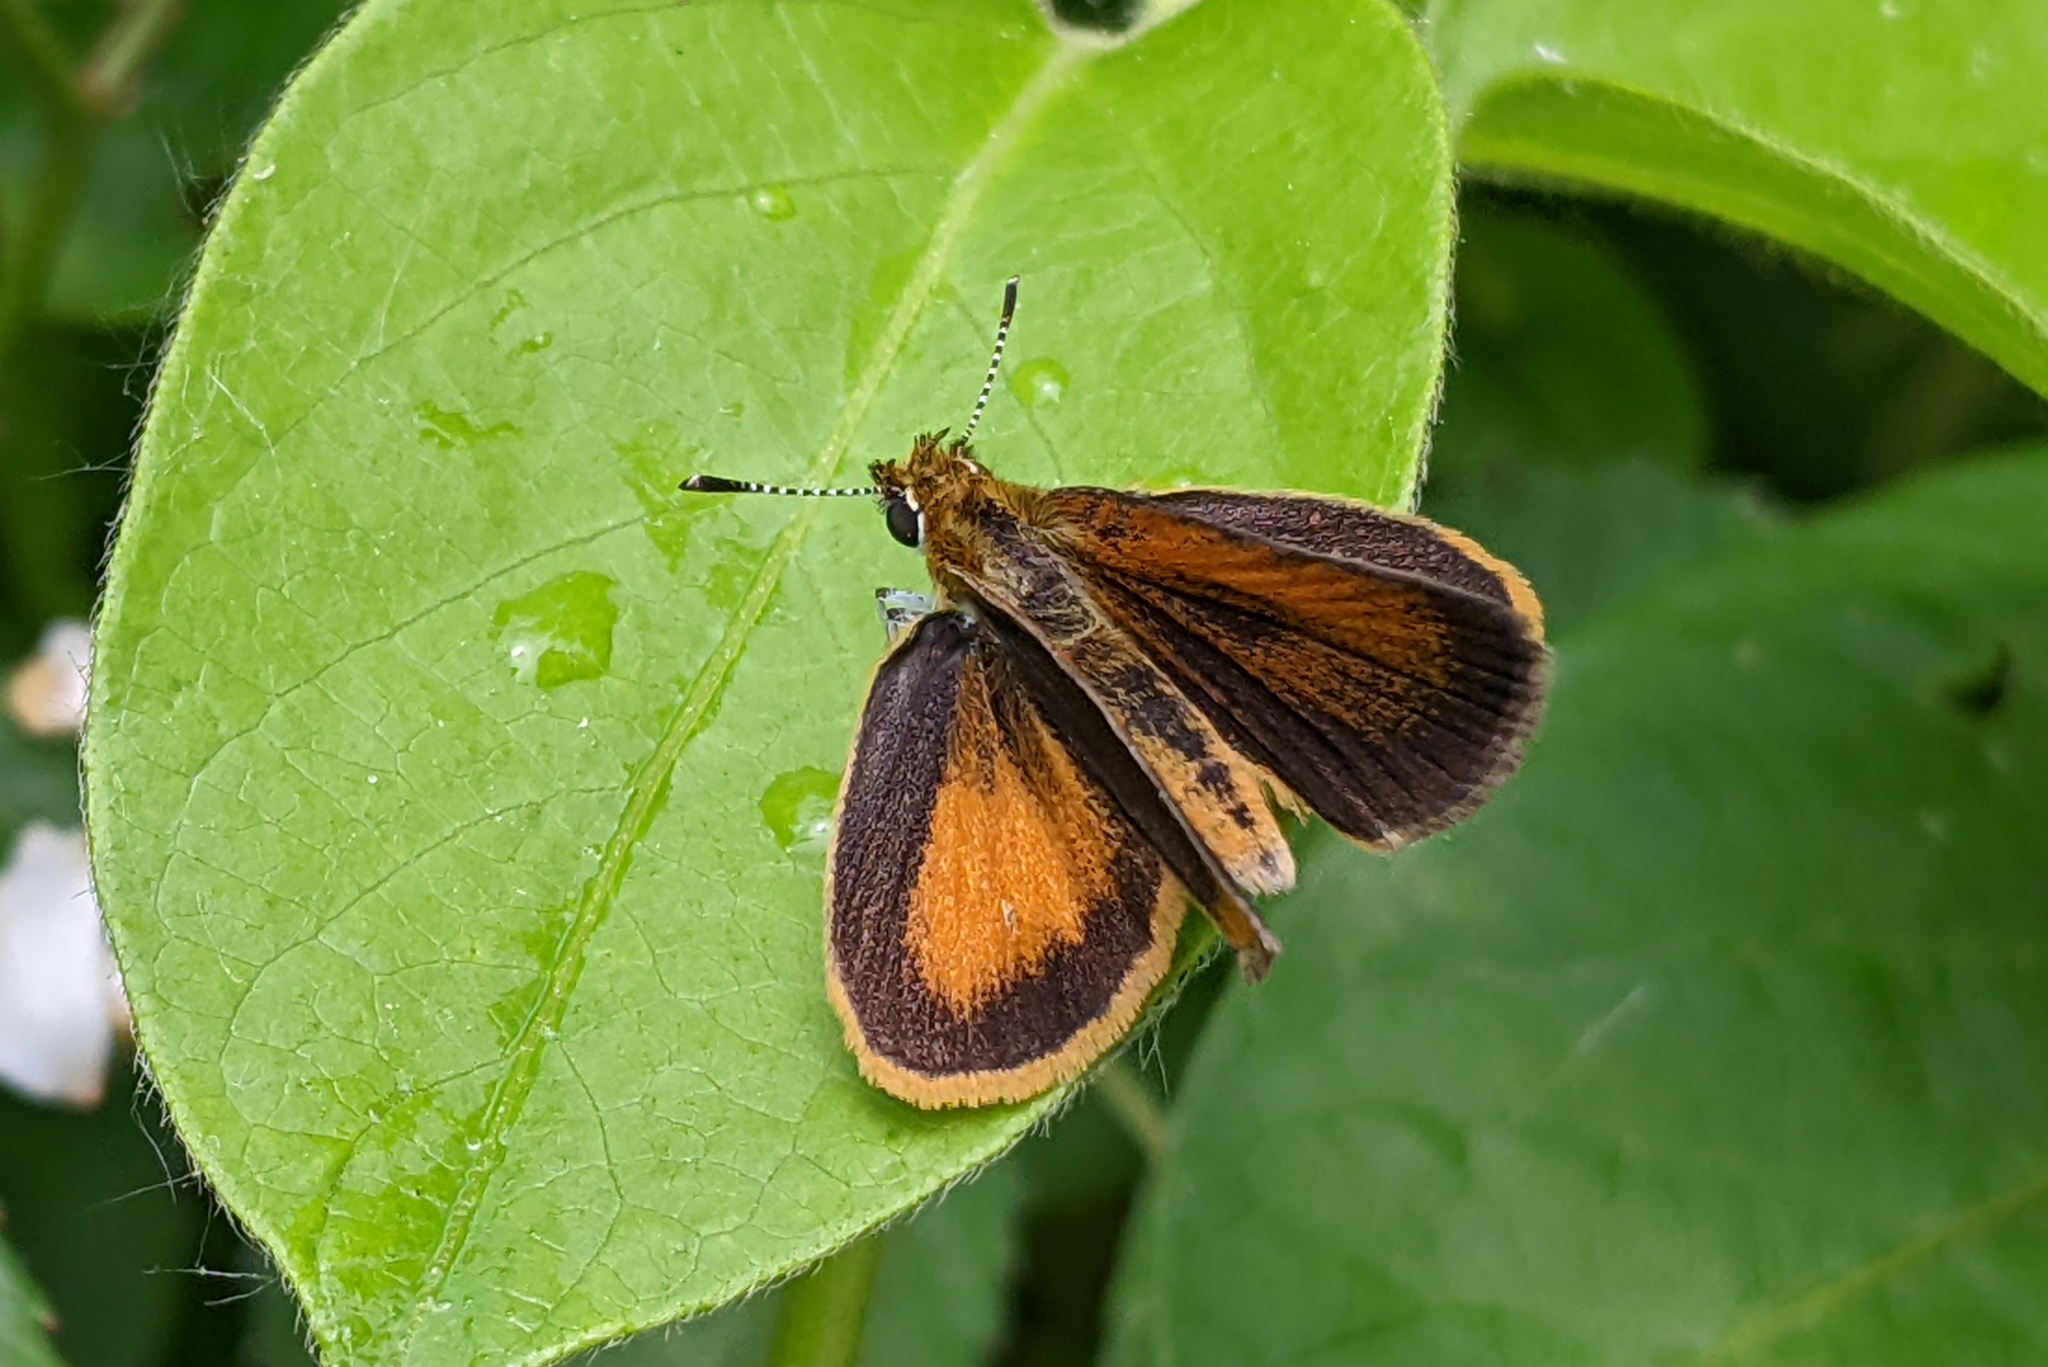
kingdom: Animalia
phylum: Arthropoda
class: Insecta
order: Lepidoptera
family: Hesperiidae
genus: Ancyloxypha
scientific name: Ancyloxypha numitor
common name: Least skipper
